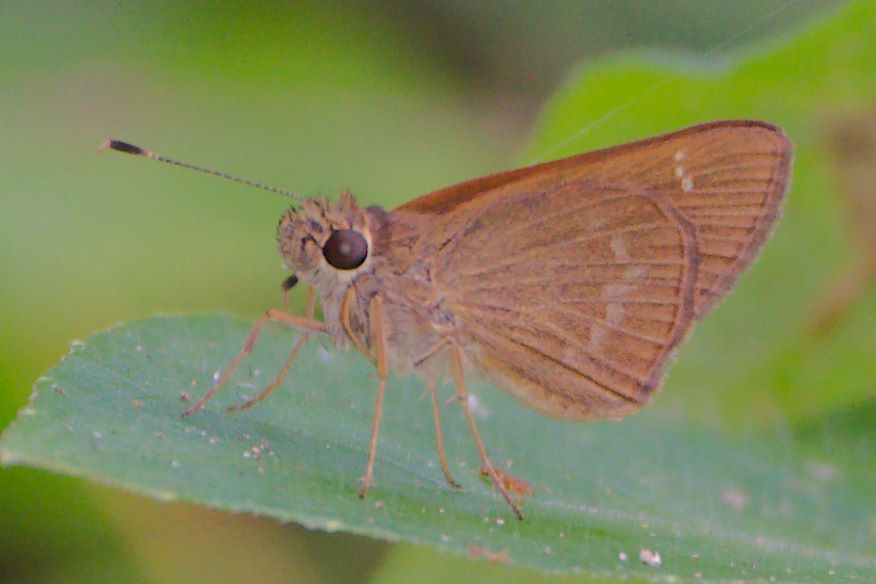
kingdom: Animalia
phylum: Arthropoda
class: Insecta
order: Lepidoptera
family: Hesperiidae
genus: Cymaenes
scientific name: Cymaenes tripunctus
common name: Dingy dotted skipper
